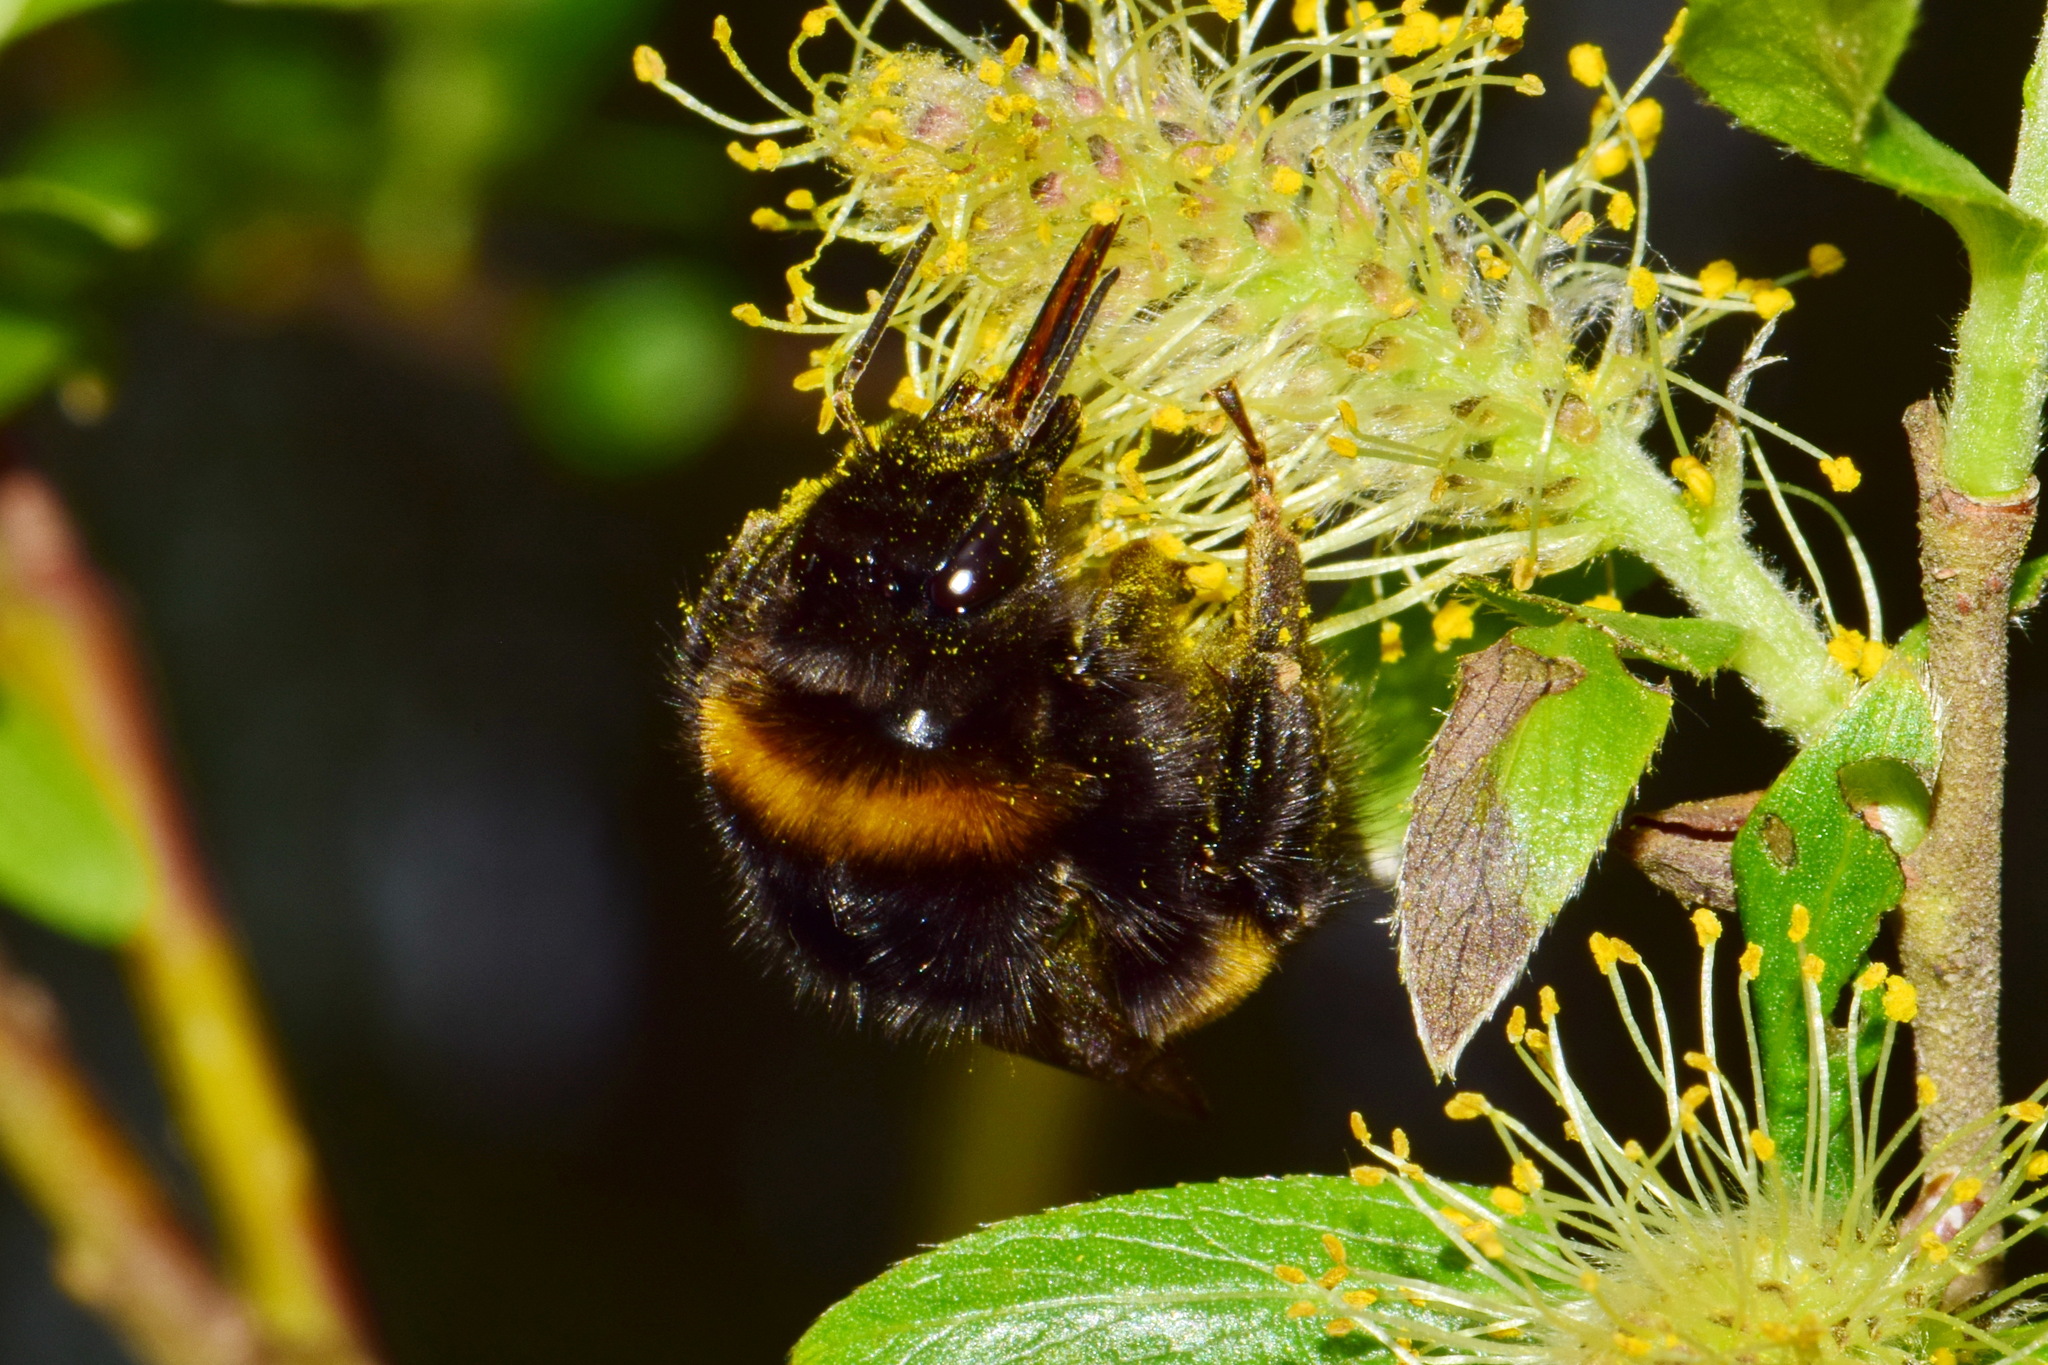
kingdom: Animalia
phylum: Arthropoda
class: Insecta
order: Hymenoptera
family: Apidae
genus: Bombus
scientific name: Bombus
